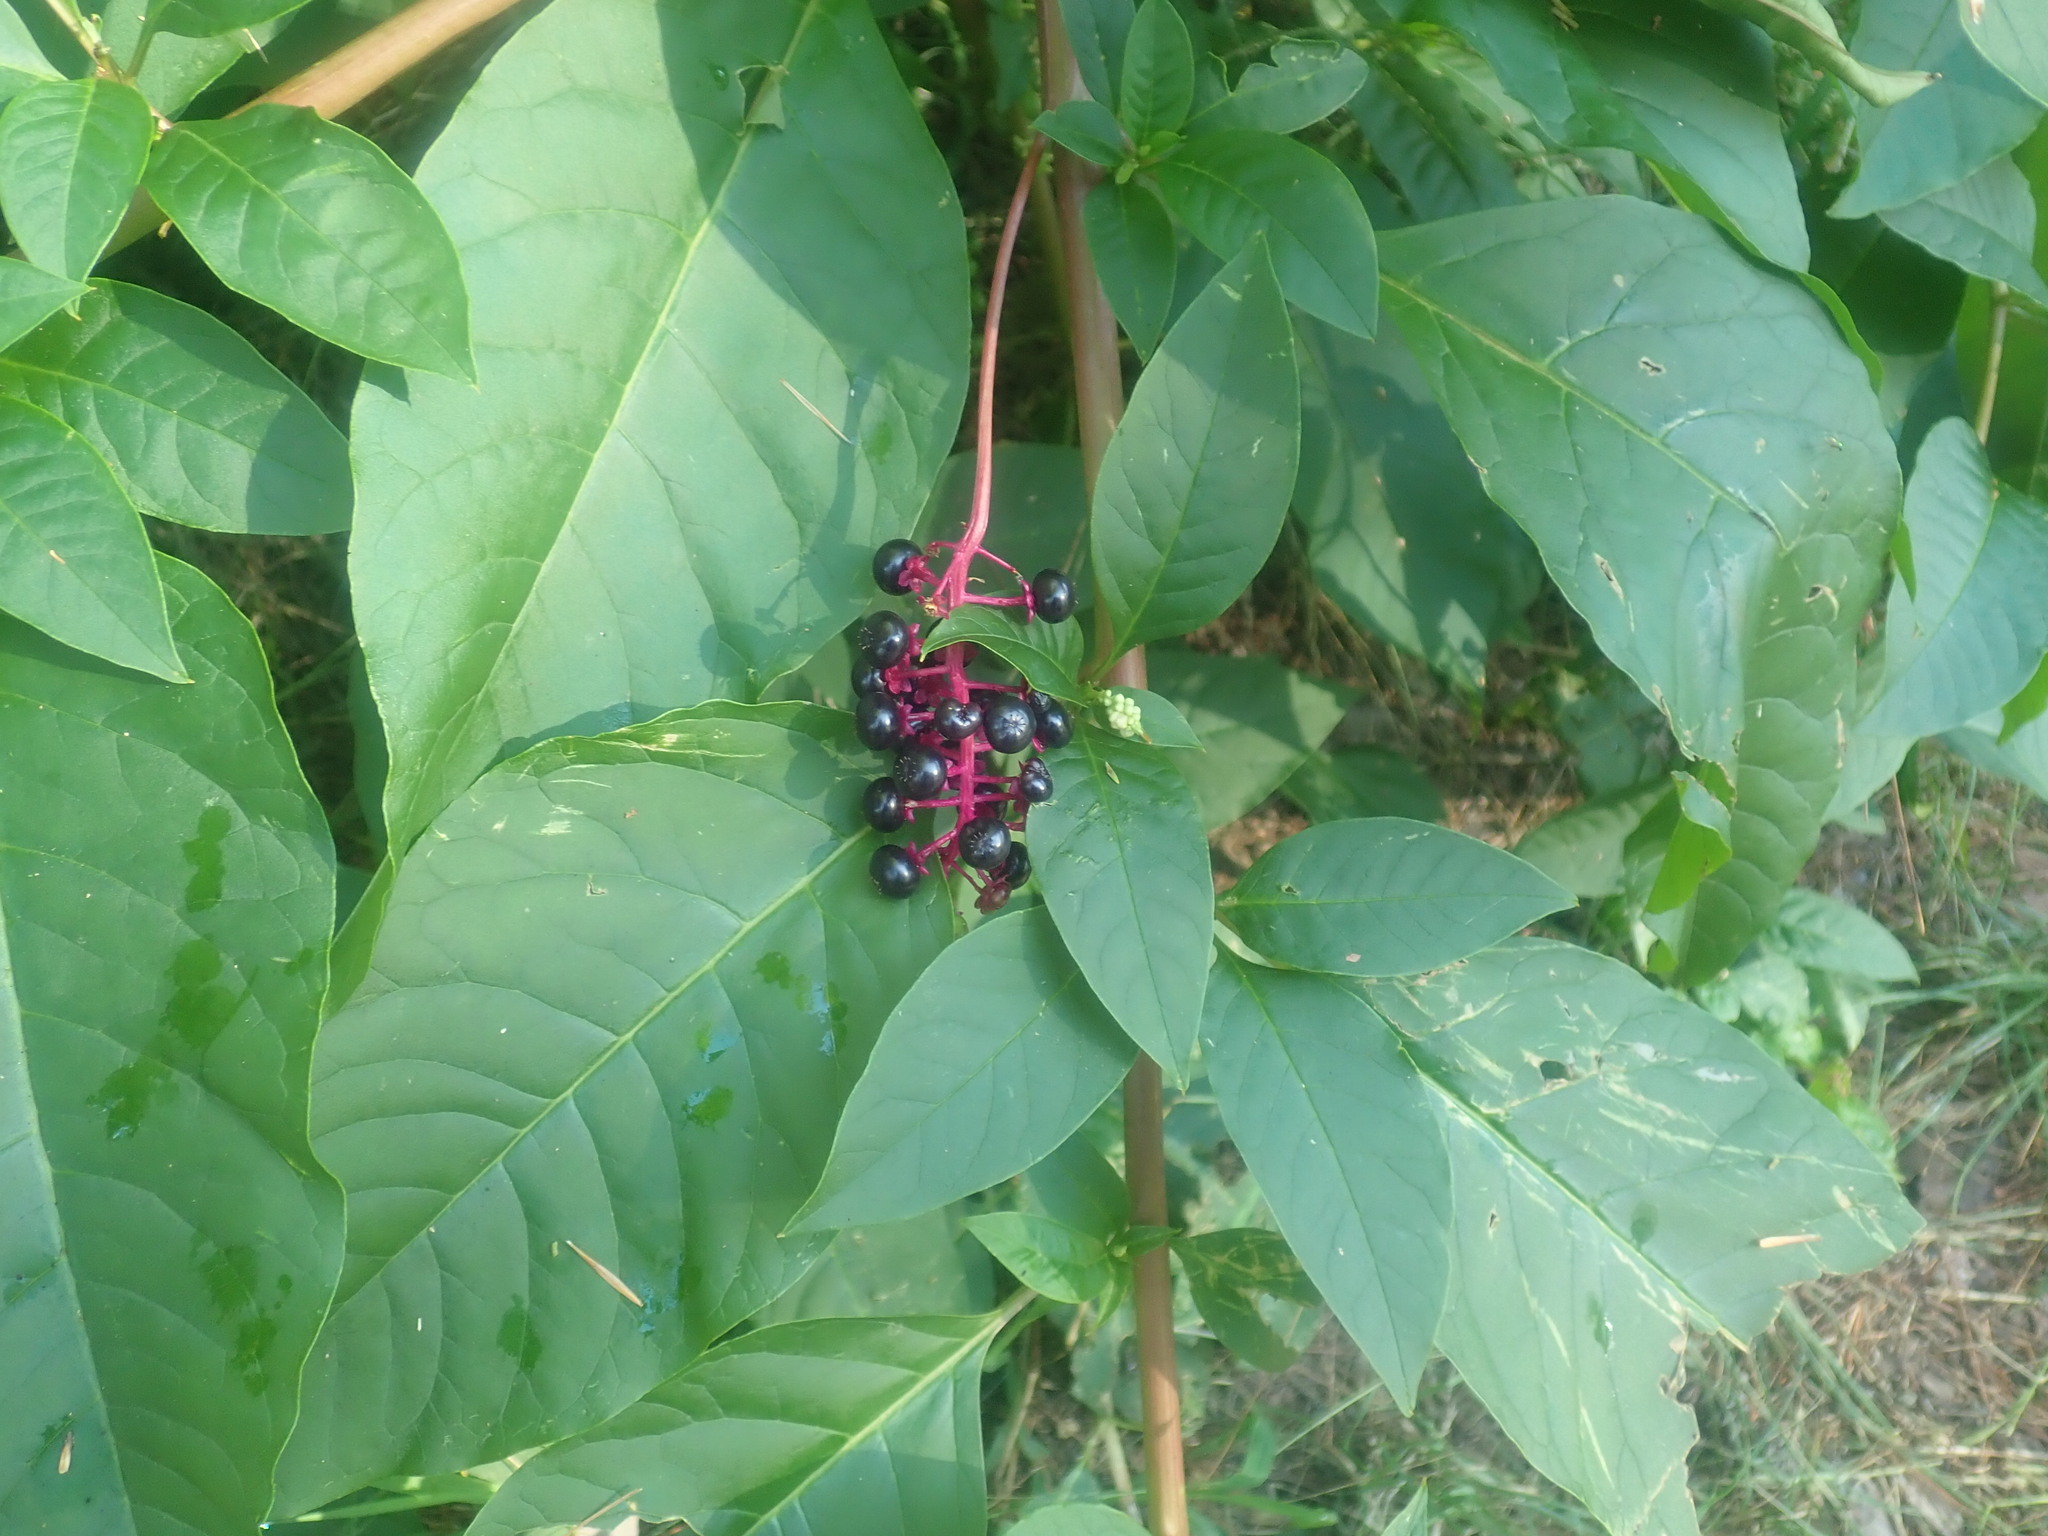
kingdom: Plantae
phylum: Tracheophyta
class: Magnoliopsida
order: Caryophyllales
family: Phytolaccaceae
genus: Phytolacca
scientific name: Phytolacca americana
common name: American pokeweed
